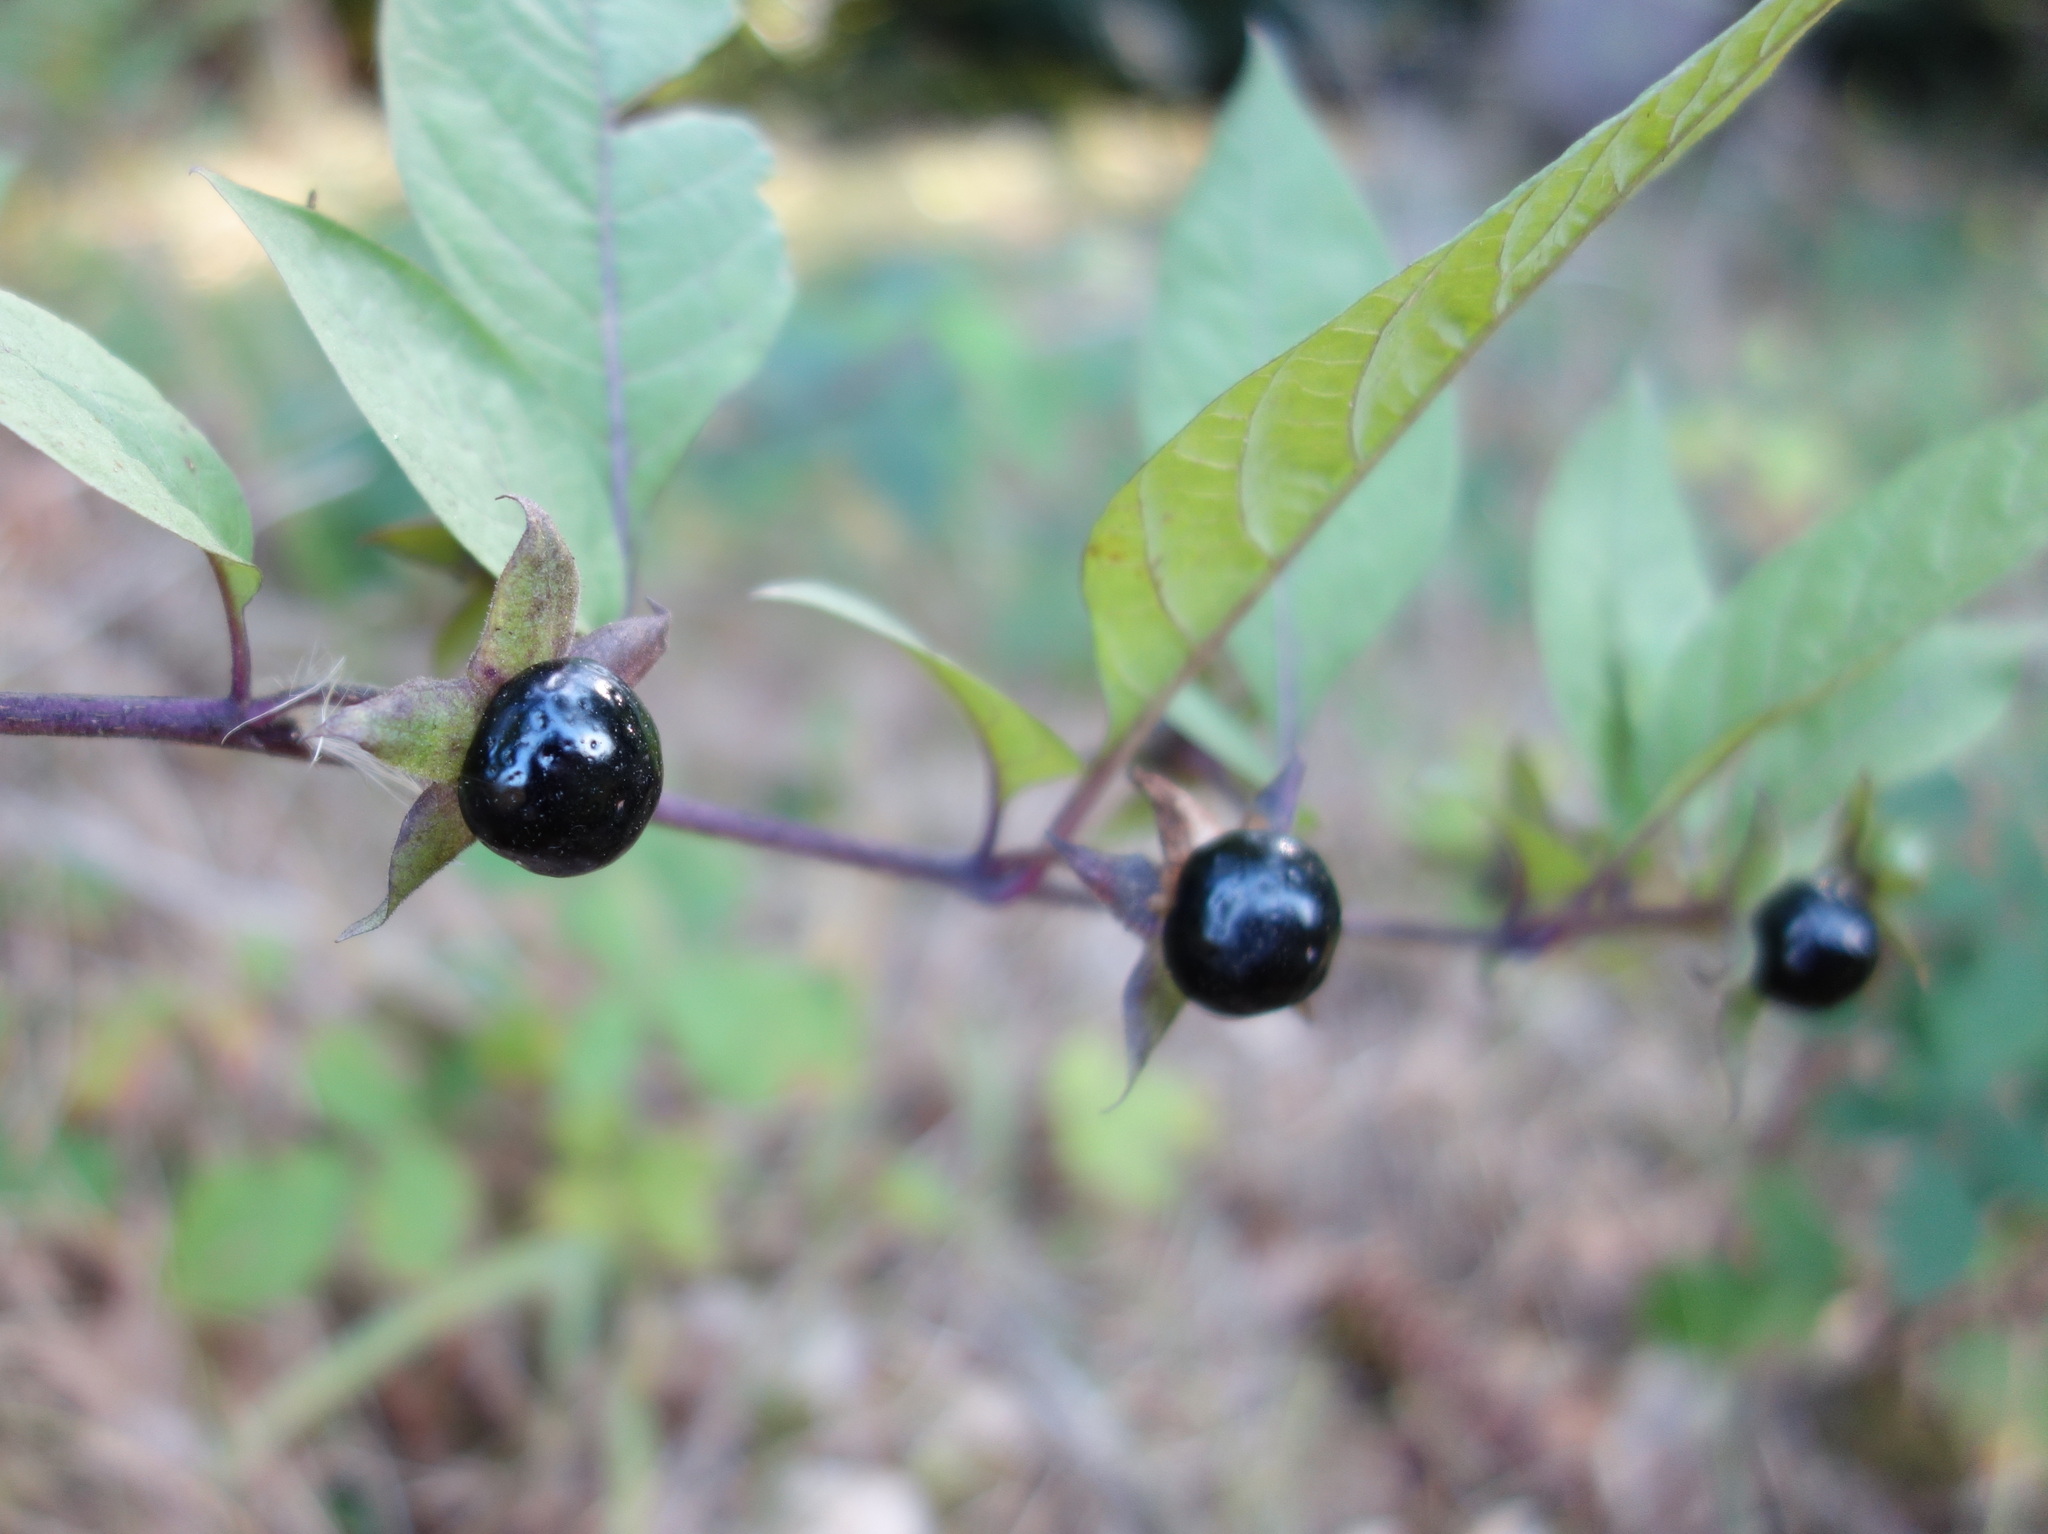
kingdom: Plantae
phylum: Tracheophyta
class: Magnoliopsida
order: Solanales
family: Solanaceae
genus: Atropa
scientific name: Atropa belladonna
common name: Deadly nightshade
